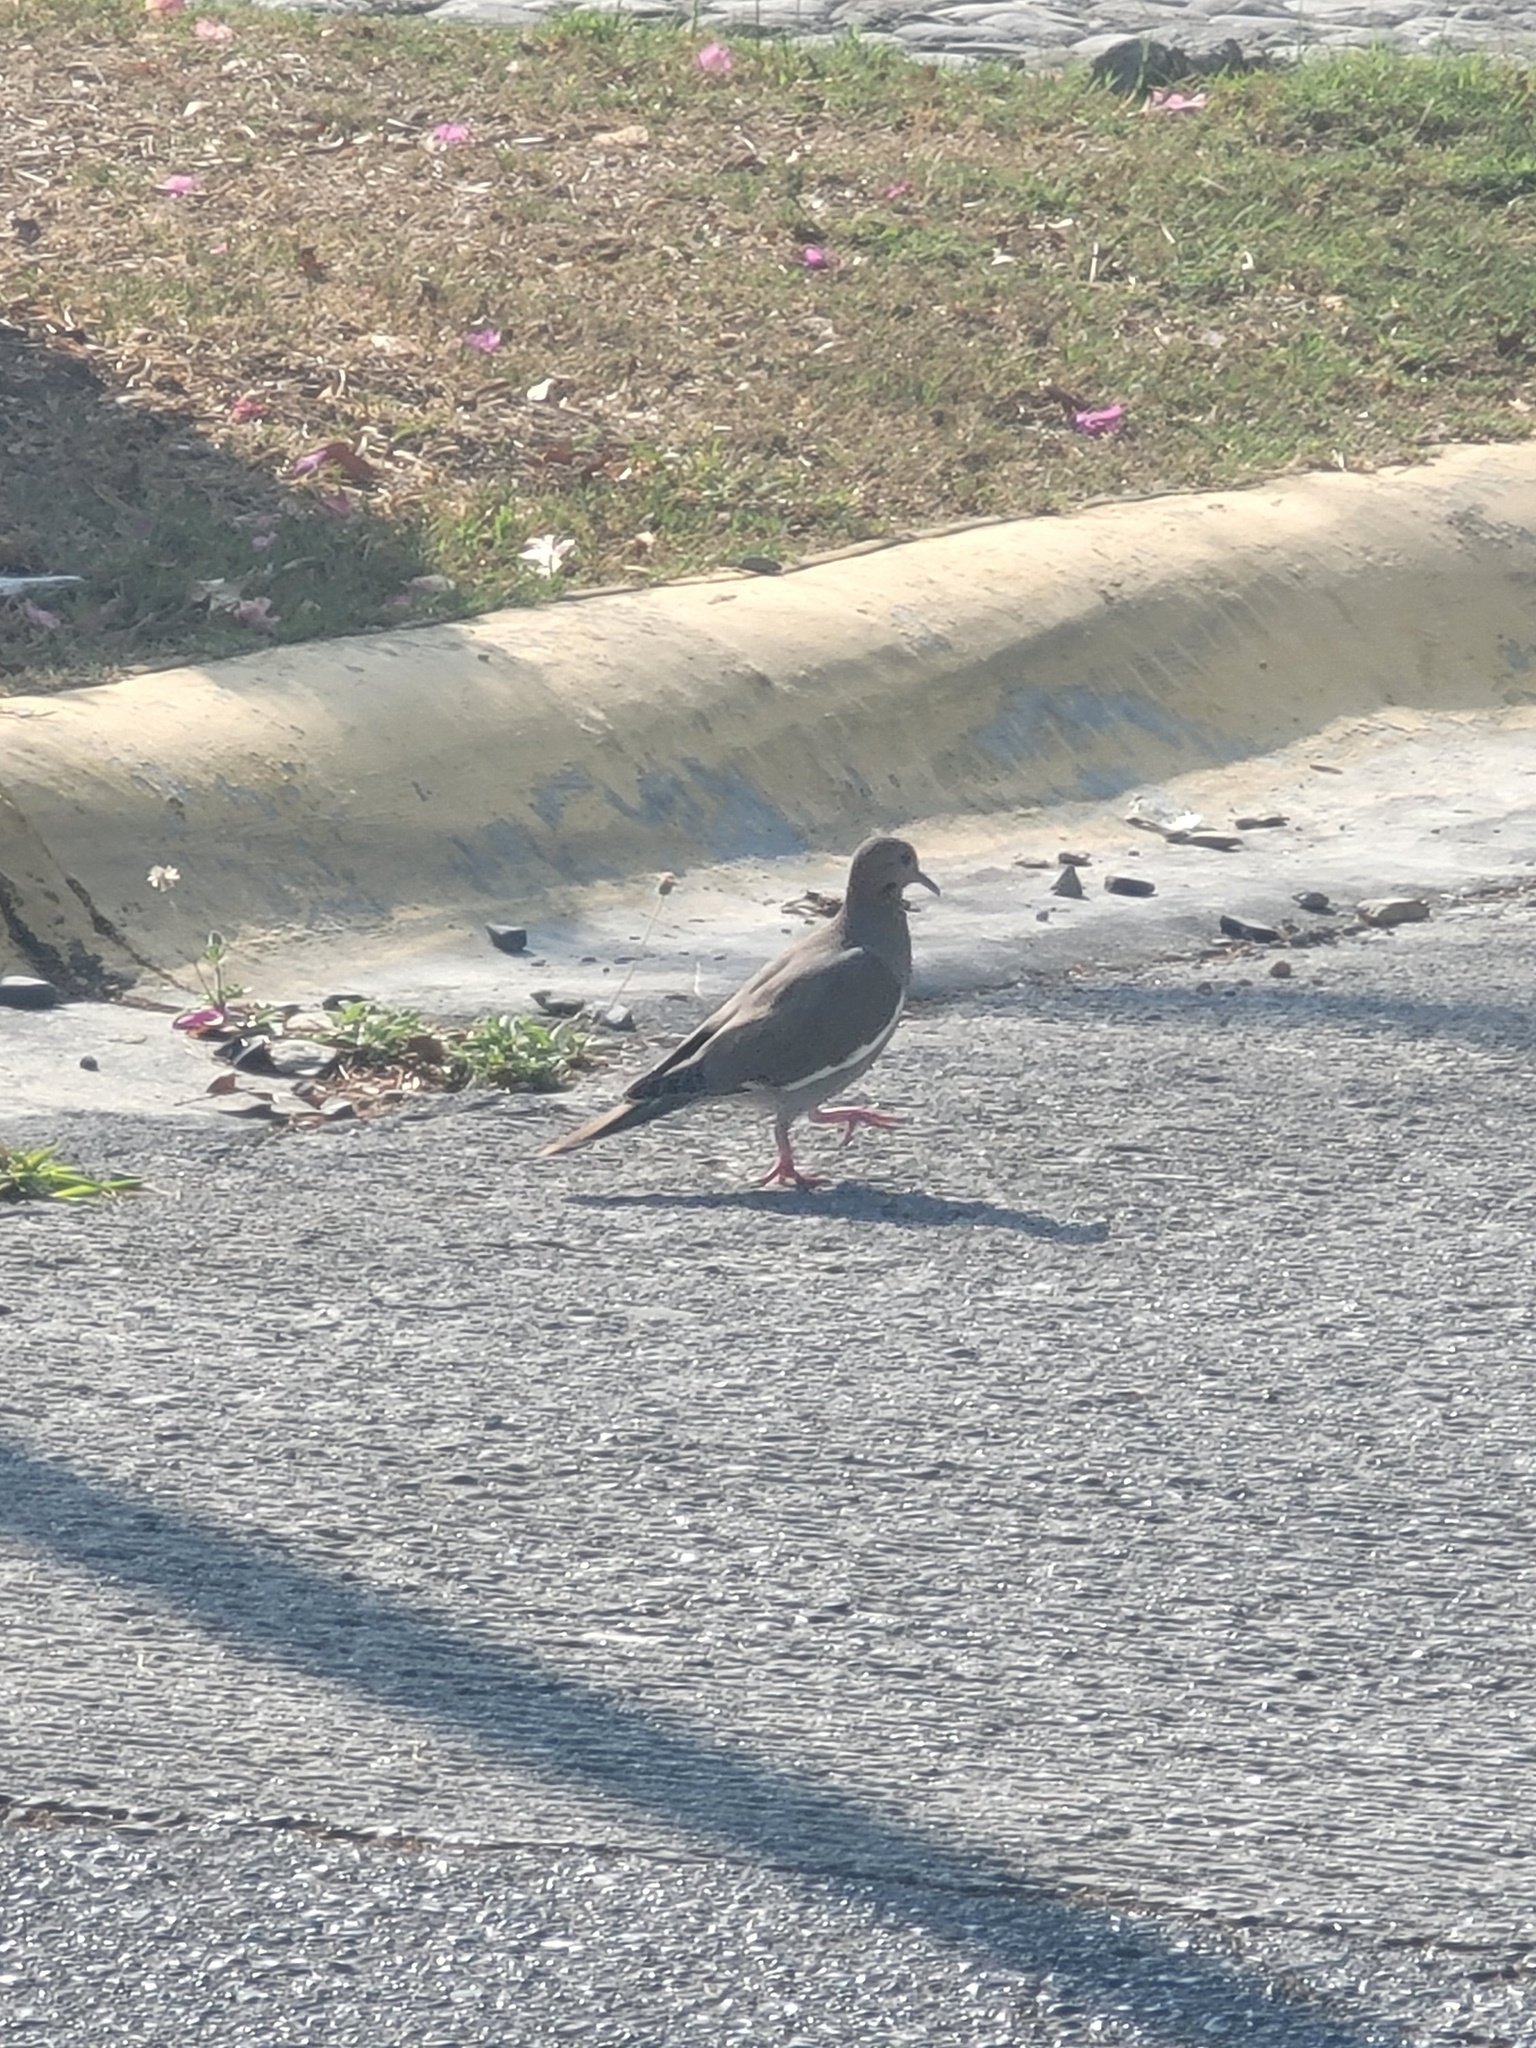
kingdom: Animalia
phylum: Chordata
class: Aves
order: Columbiformes
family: Columbidae
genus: Zenaida
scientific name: Zenaida asiatica
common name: White-winged dove
